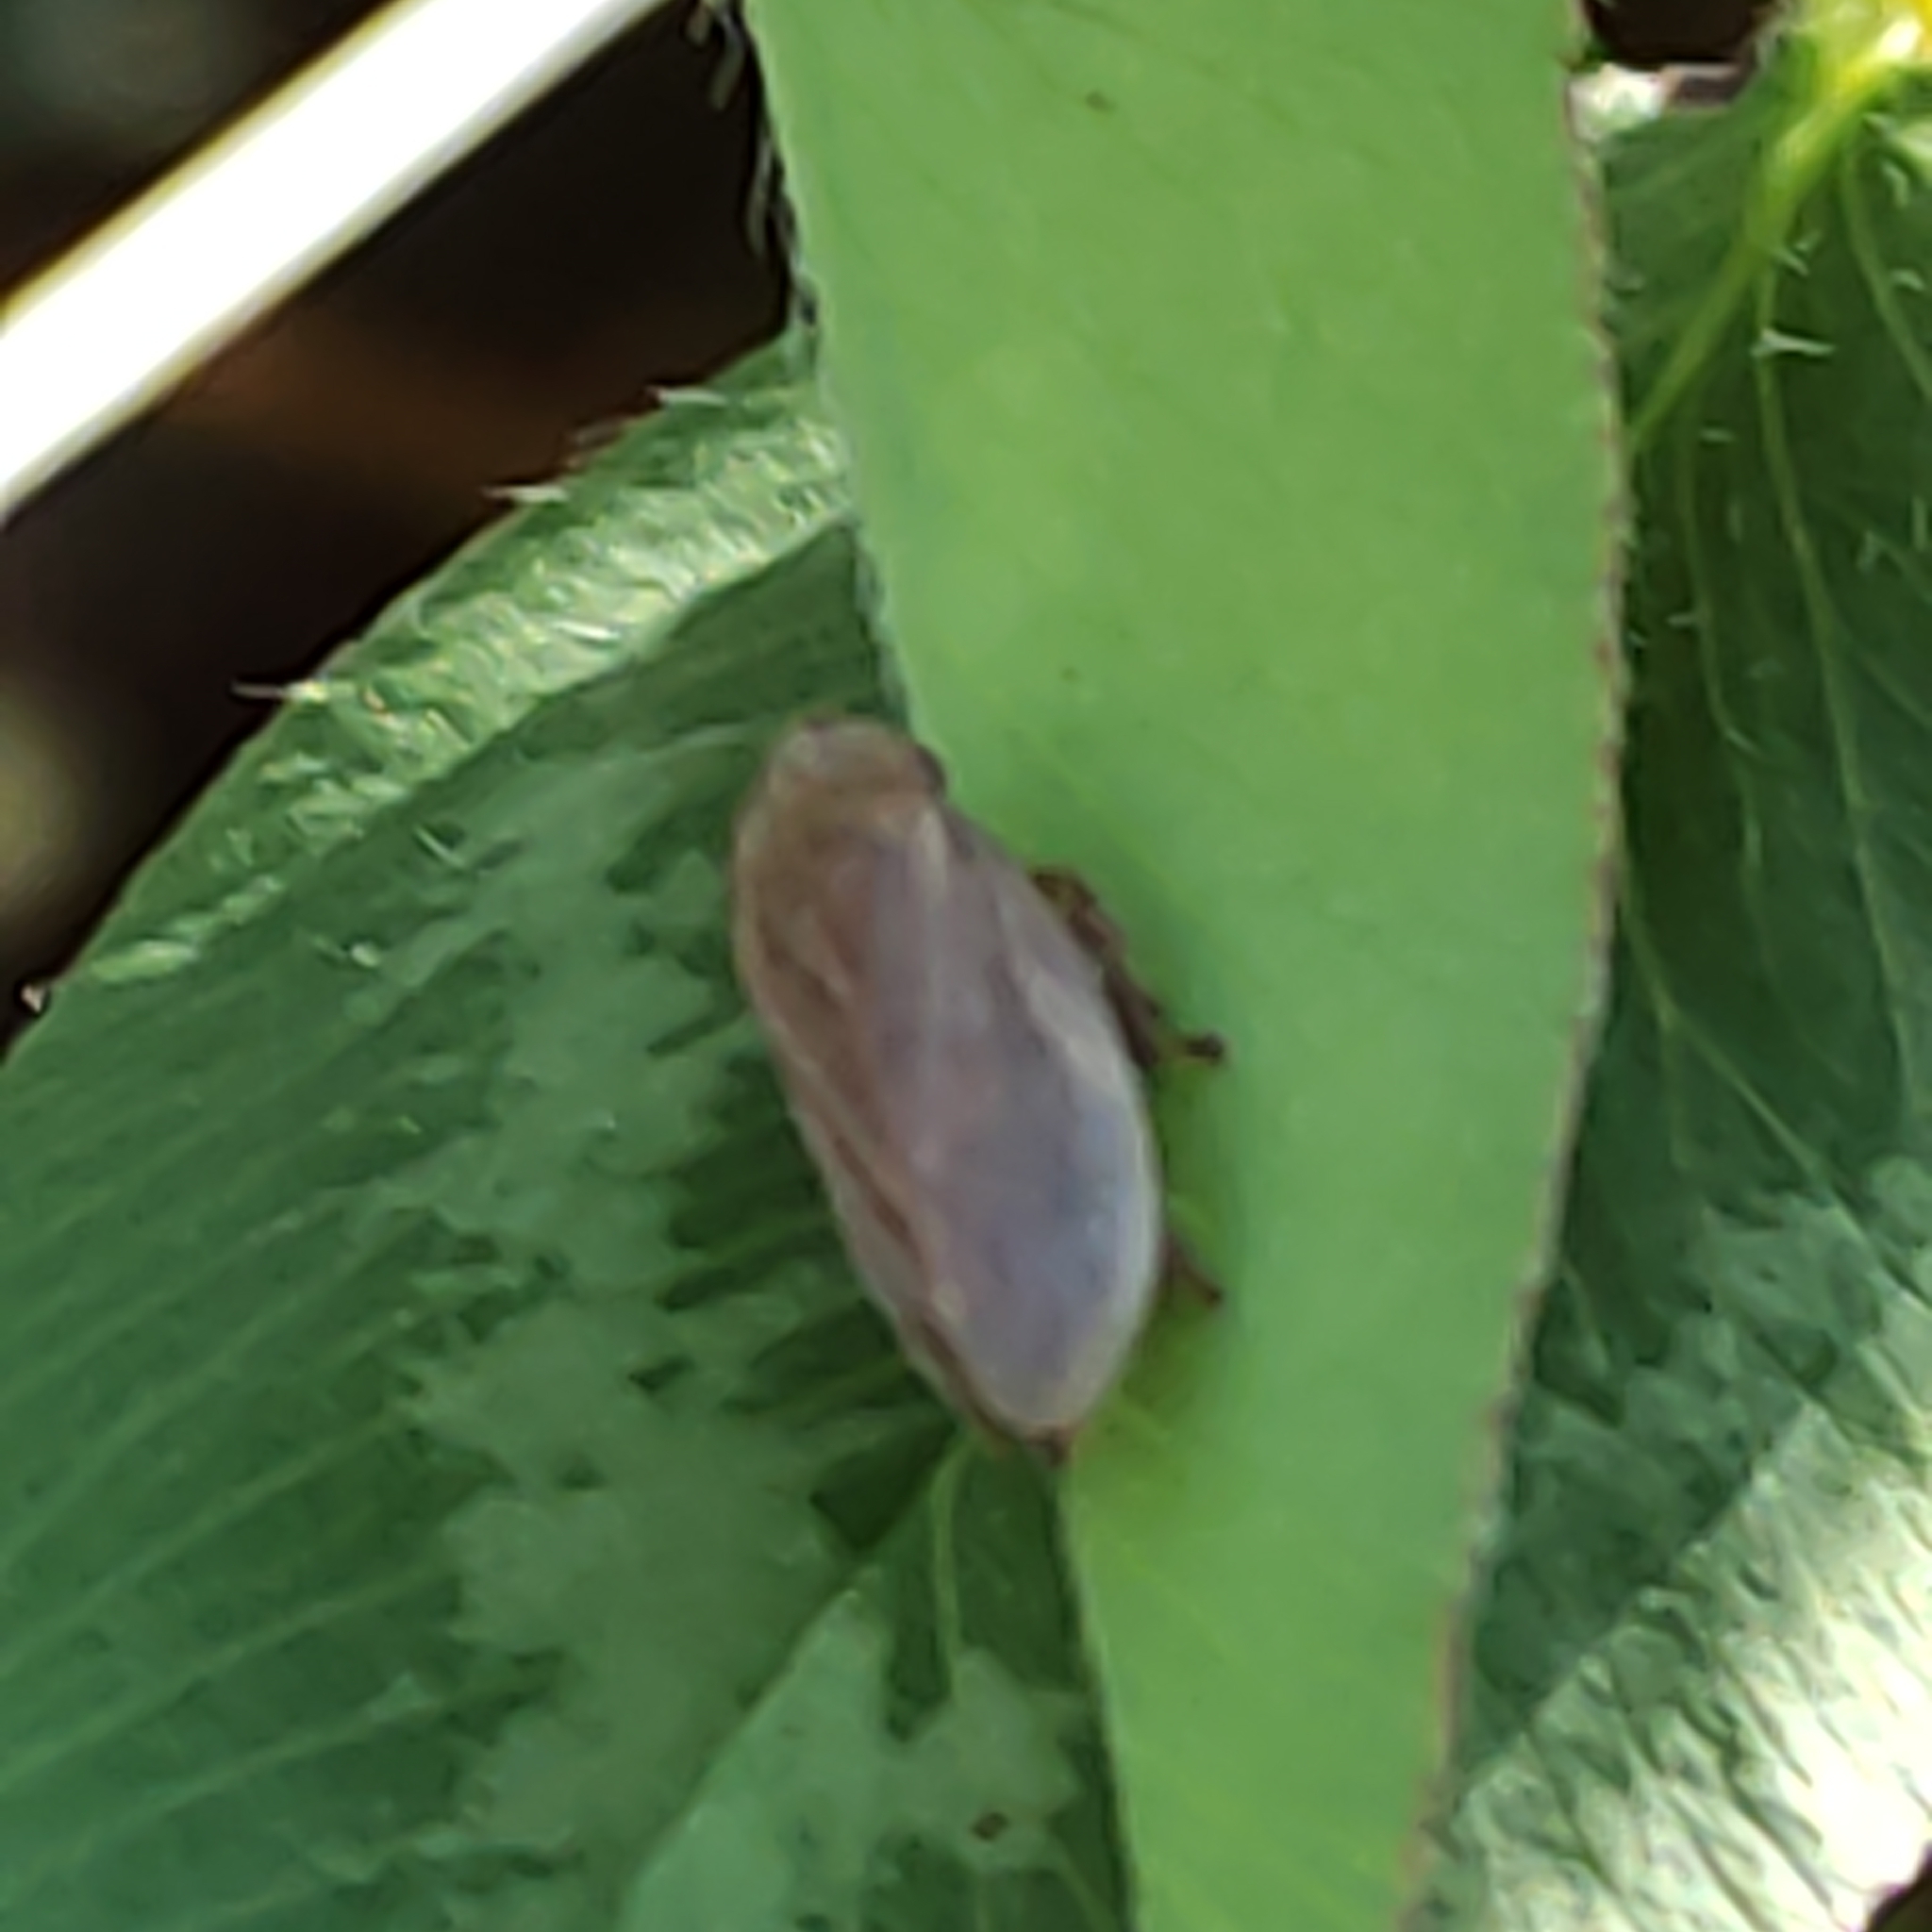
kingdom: Animalia
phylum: Arthropoda
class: Insecta
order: Hemiptera
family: Aphrophoridae
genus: Philaenus
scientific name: Philaenus spumarius
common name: Meadow spittlebug
